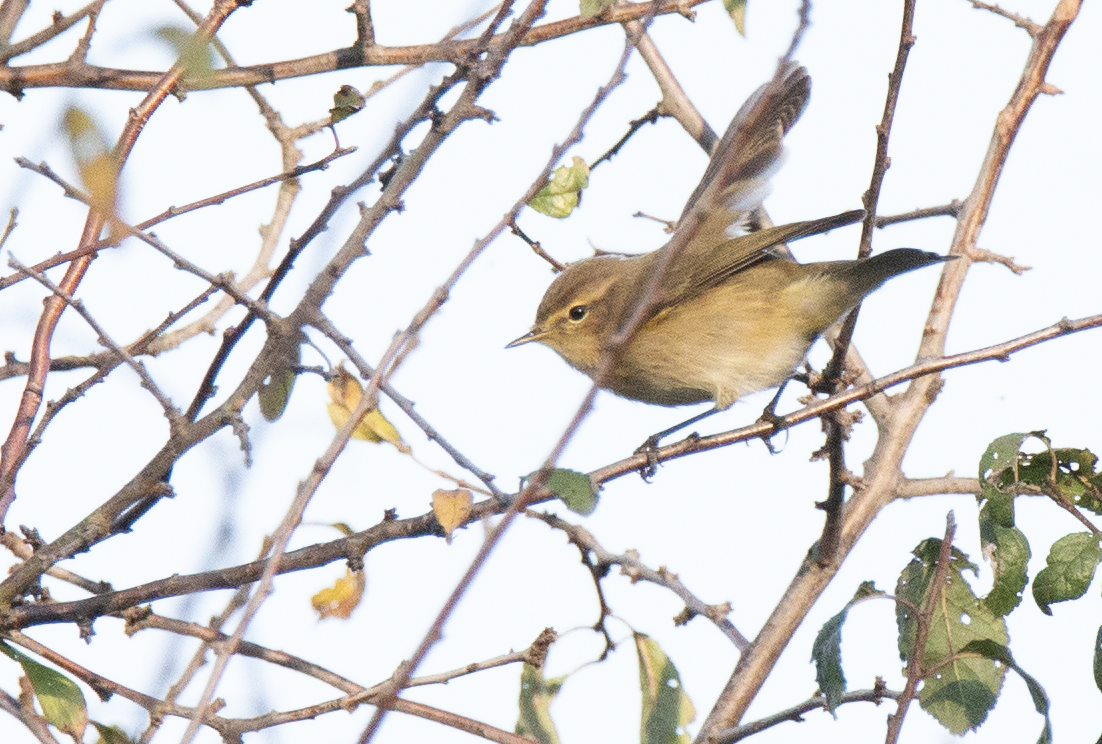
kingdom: Animalia
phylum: Chordata
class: Aves
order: Passeriformes
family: Phylloscopidae
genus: Phylloscopus
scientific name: Phylloscopus collybita
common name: Common chiffchaff
